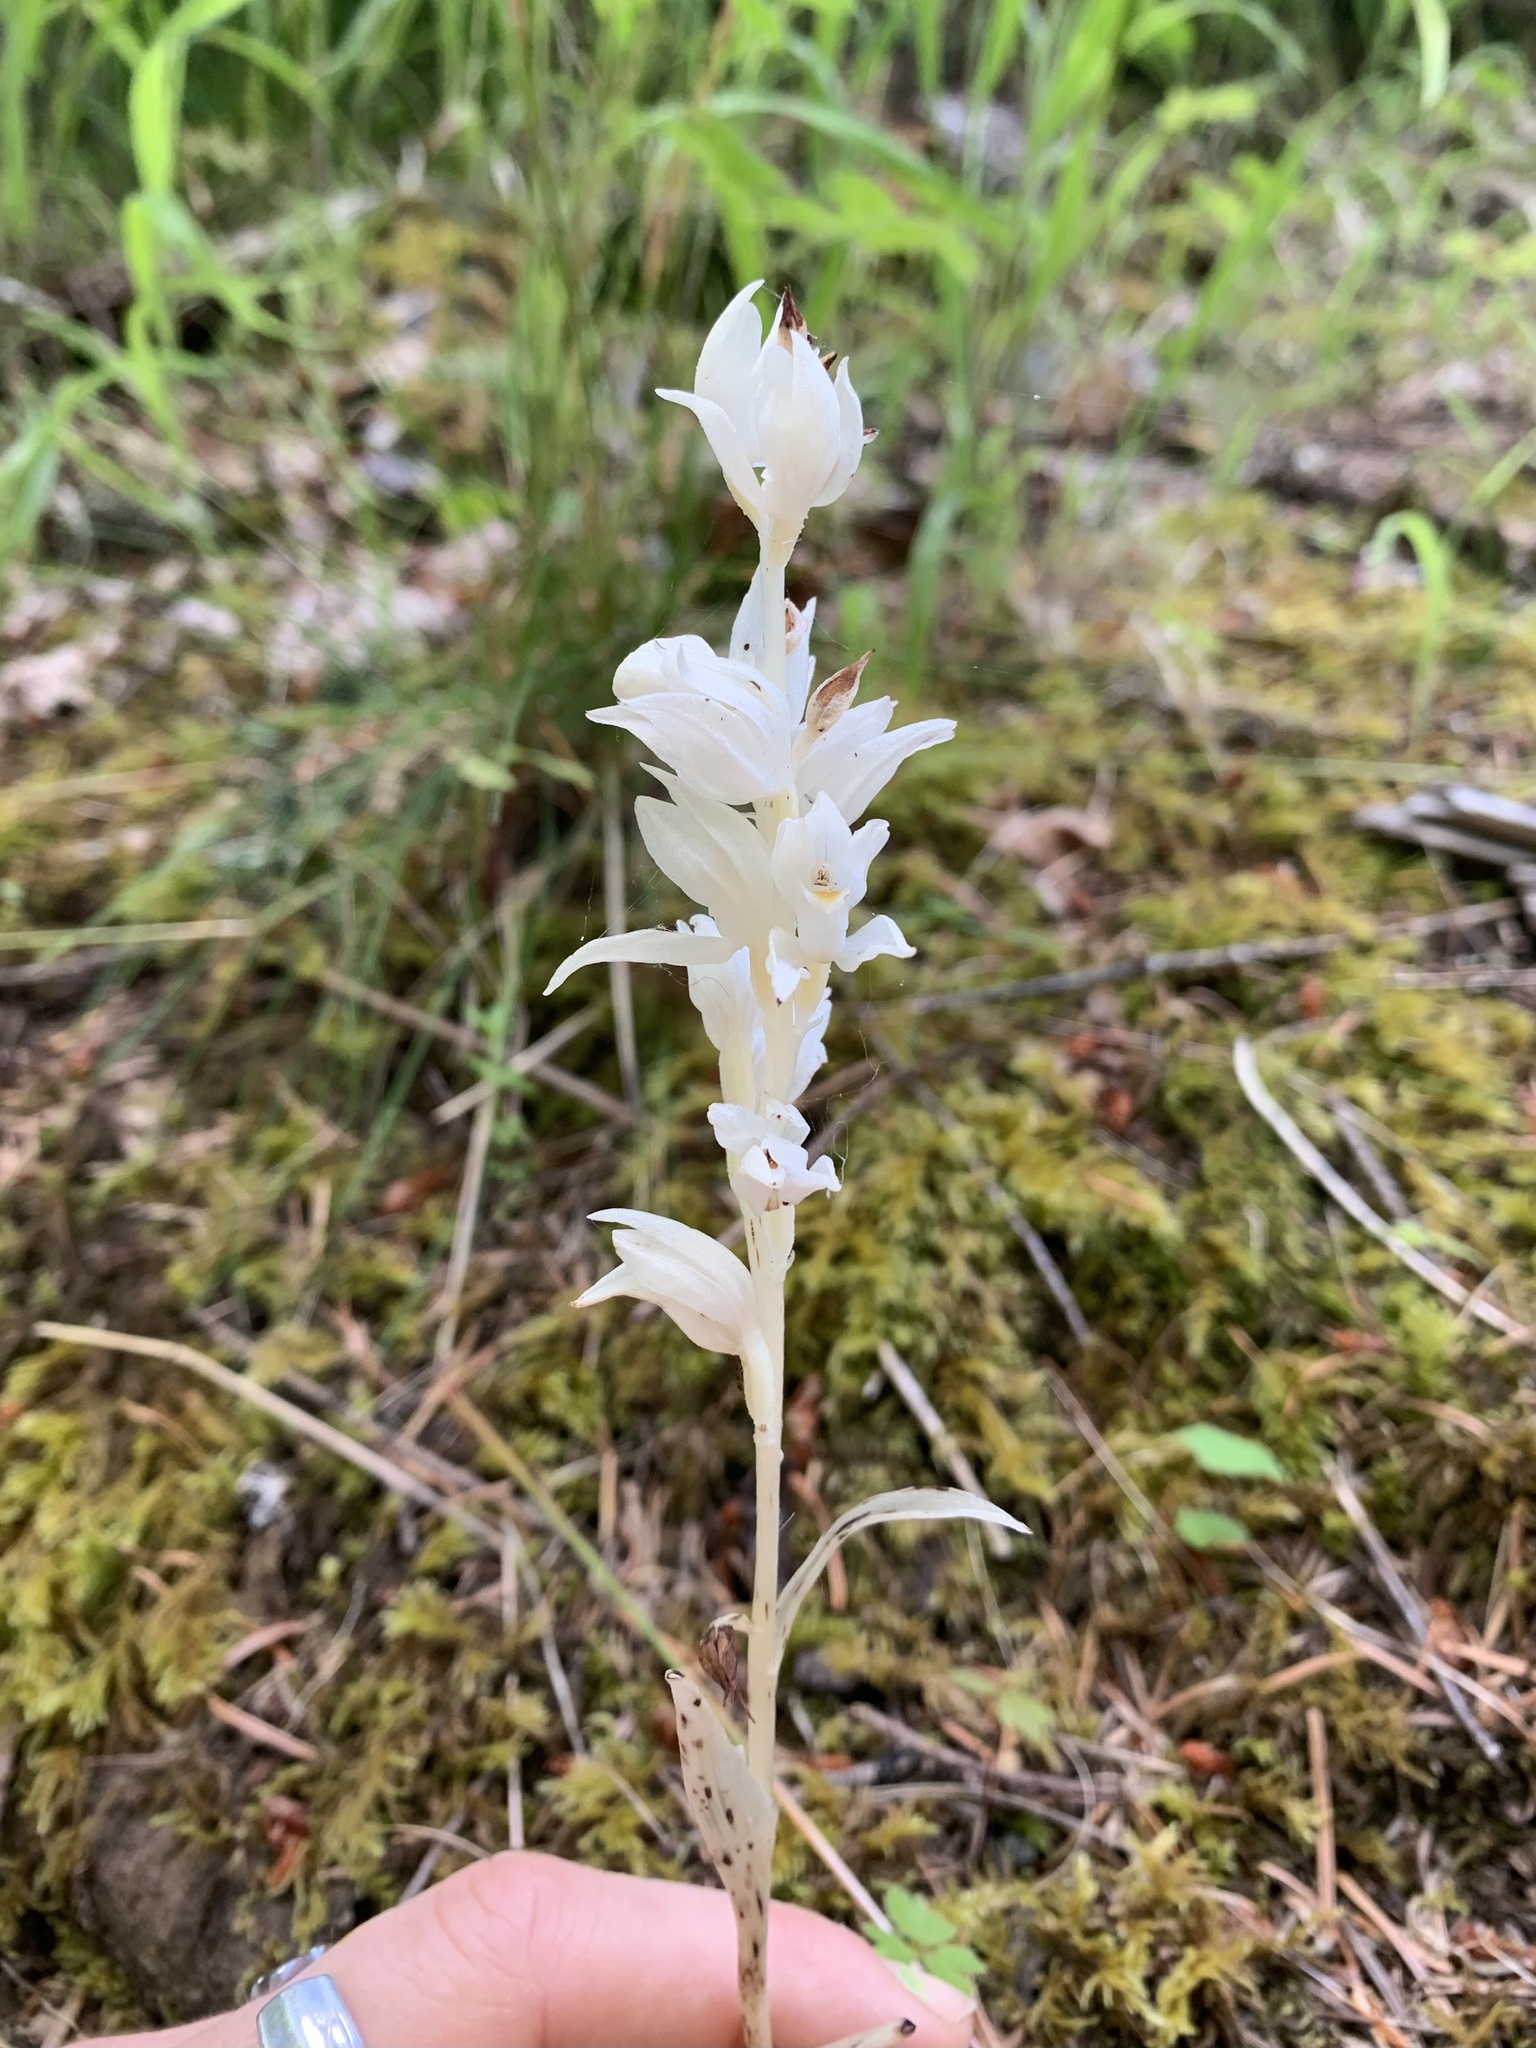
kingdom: Plantae
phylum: Tracheophyta
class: Liliopsida
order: Asparagales
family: Orchidaceae
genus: Cephalanthera
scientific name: Cephalanthera austiniae
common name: Phantom orchid
